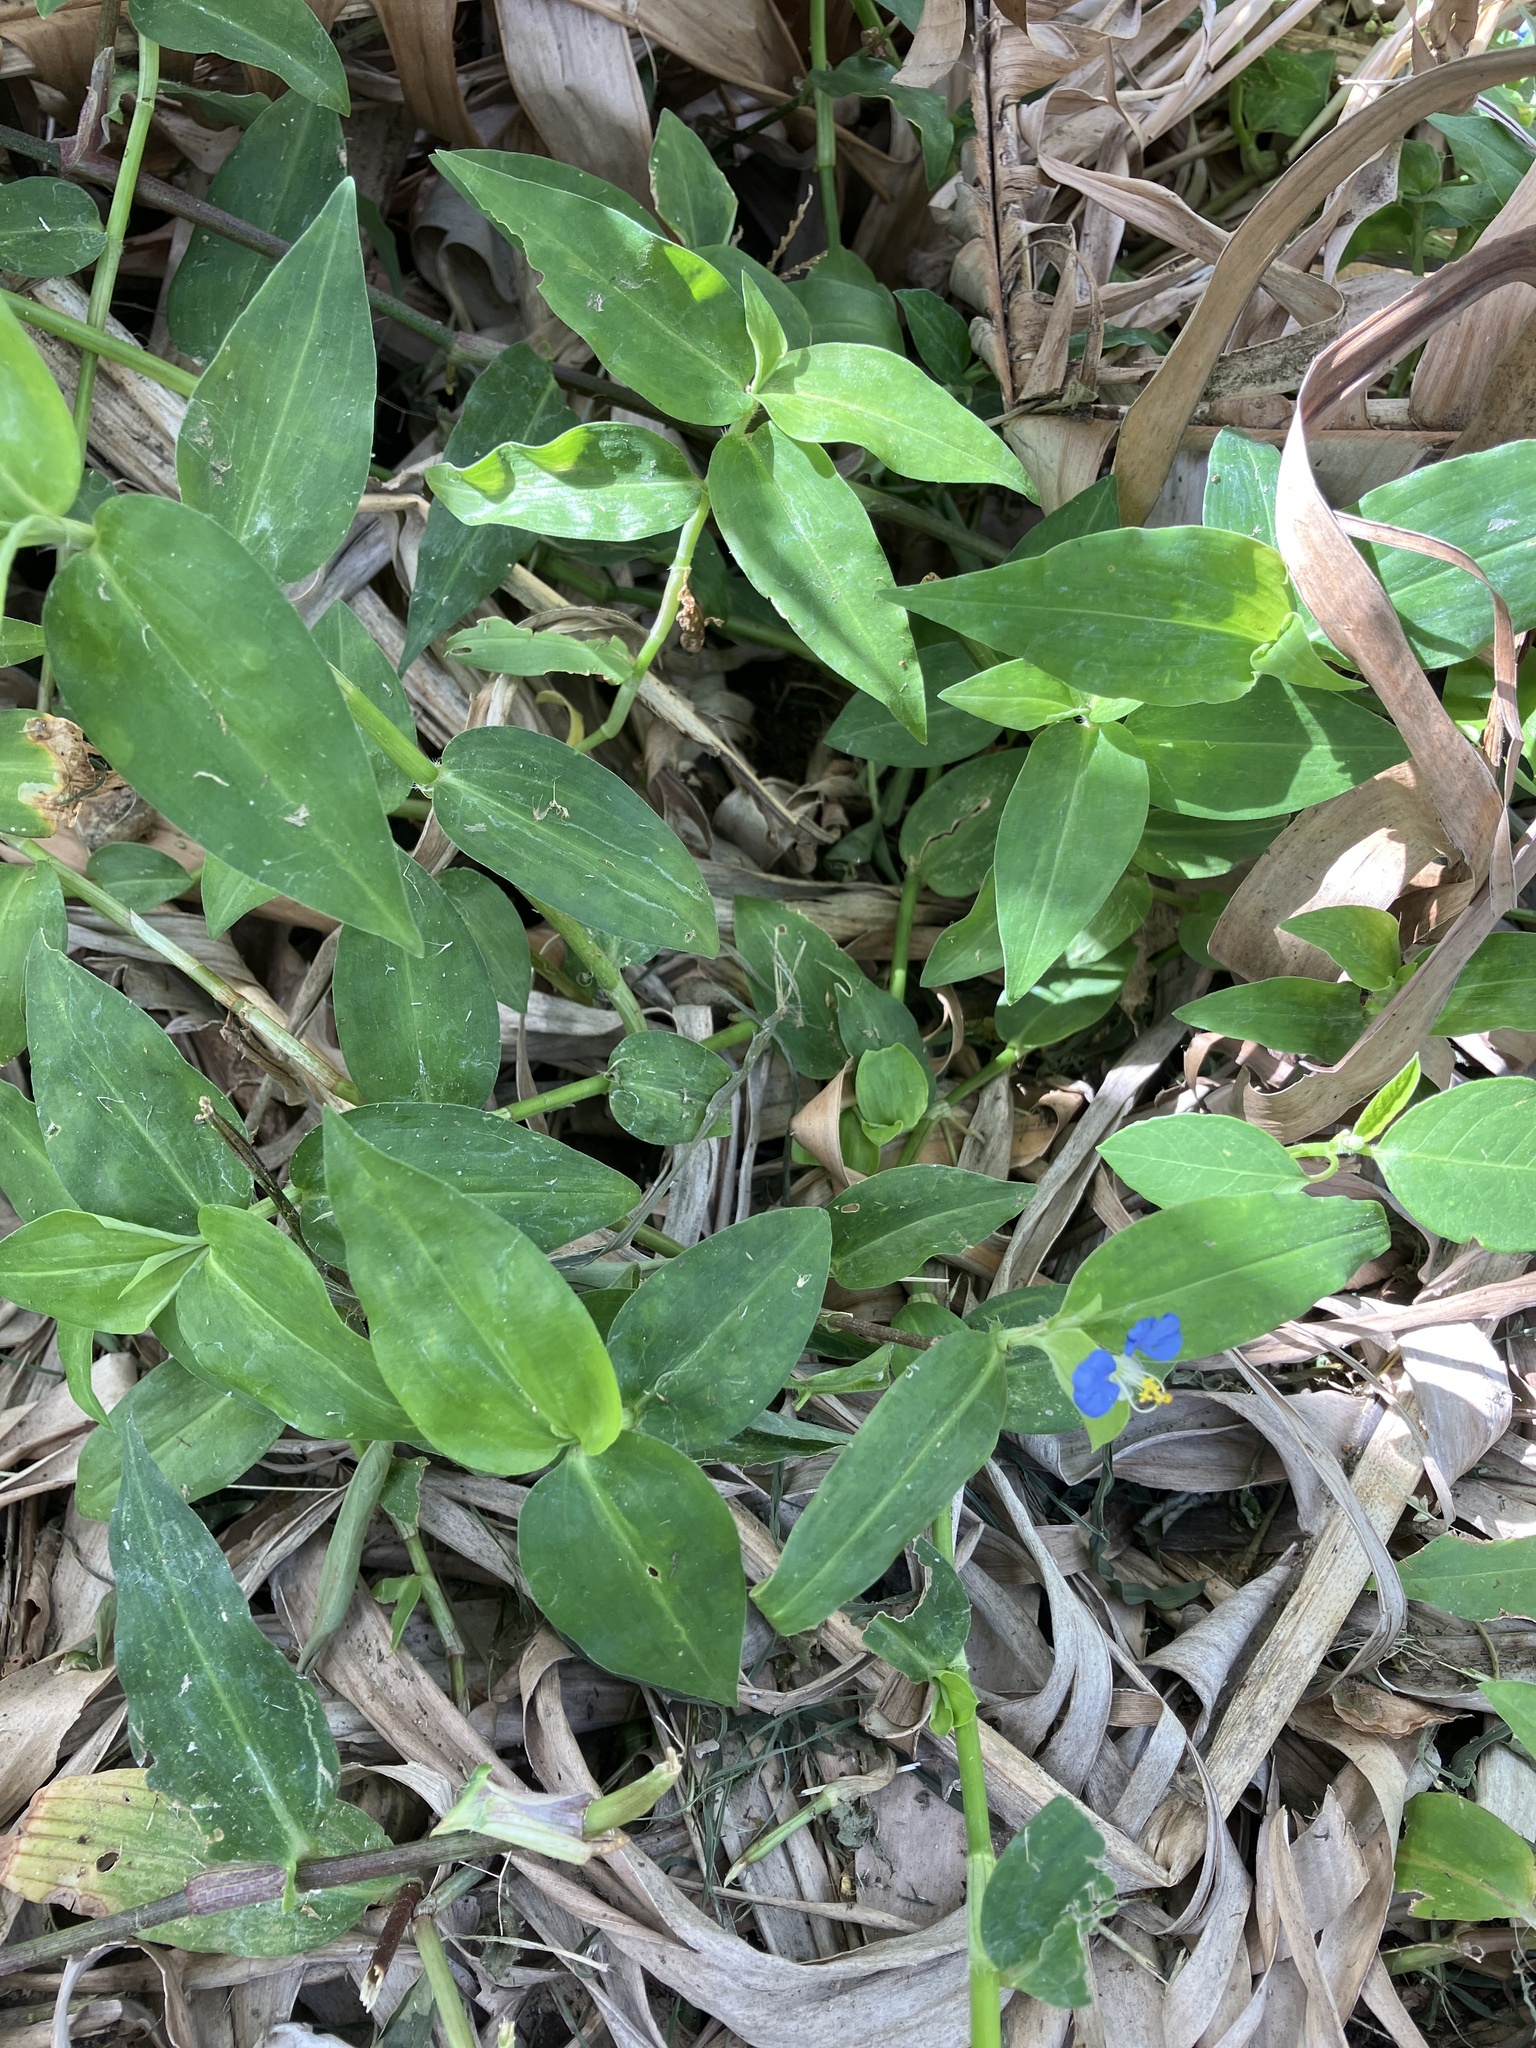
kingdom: Plantae
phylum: Tracheophyta
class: Liliopsida
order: Commelinales
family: Commelinaceae
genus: Commelina
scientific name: Commelina erecta
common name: Blousel blommetjie
